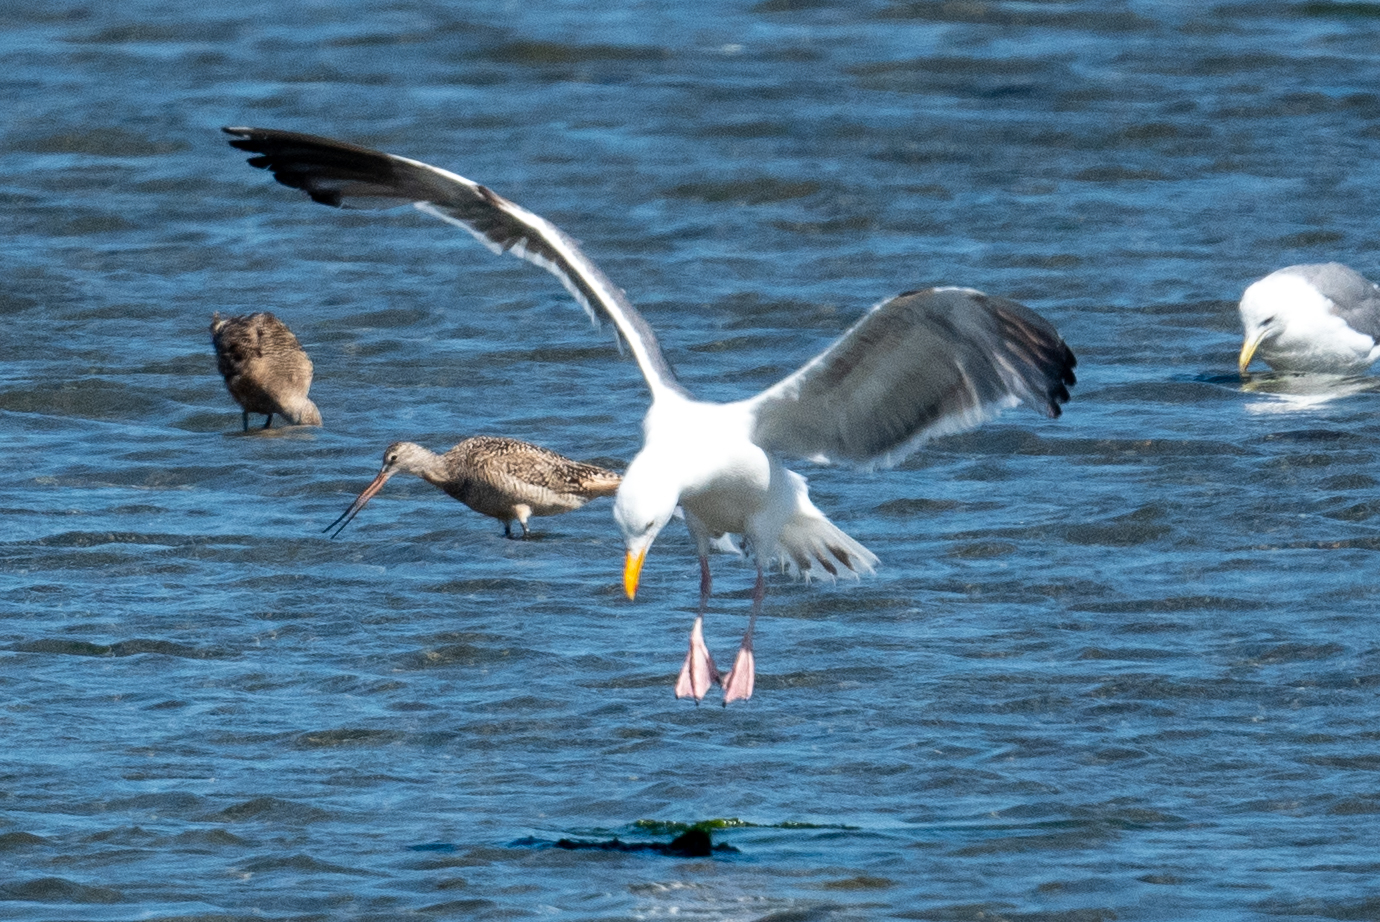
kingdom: Animalia
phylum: Chordata
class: Aves
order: Charadriiformes
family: Laridae
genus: Larus
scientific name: Larus occidentalis
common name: Western gull
